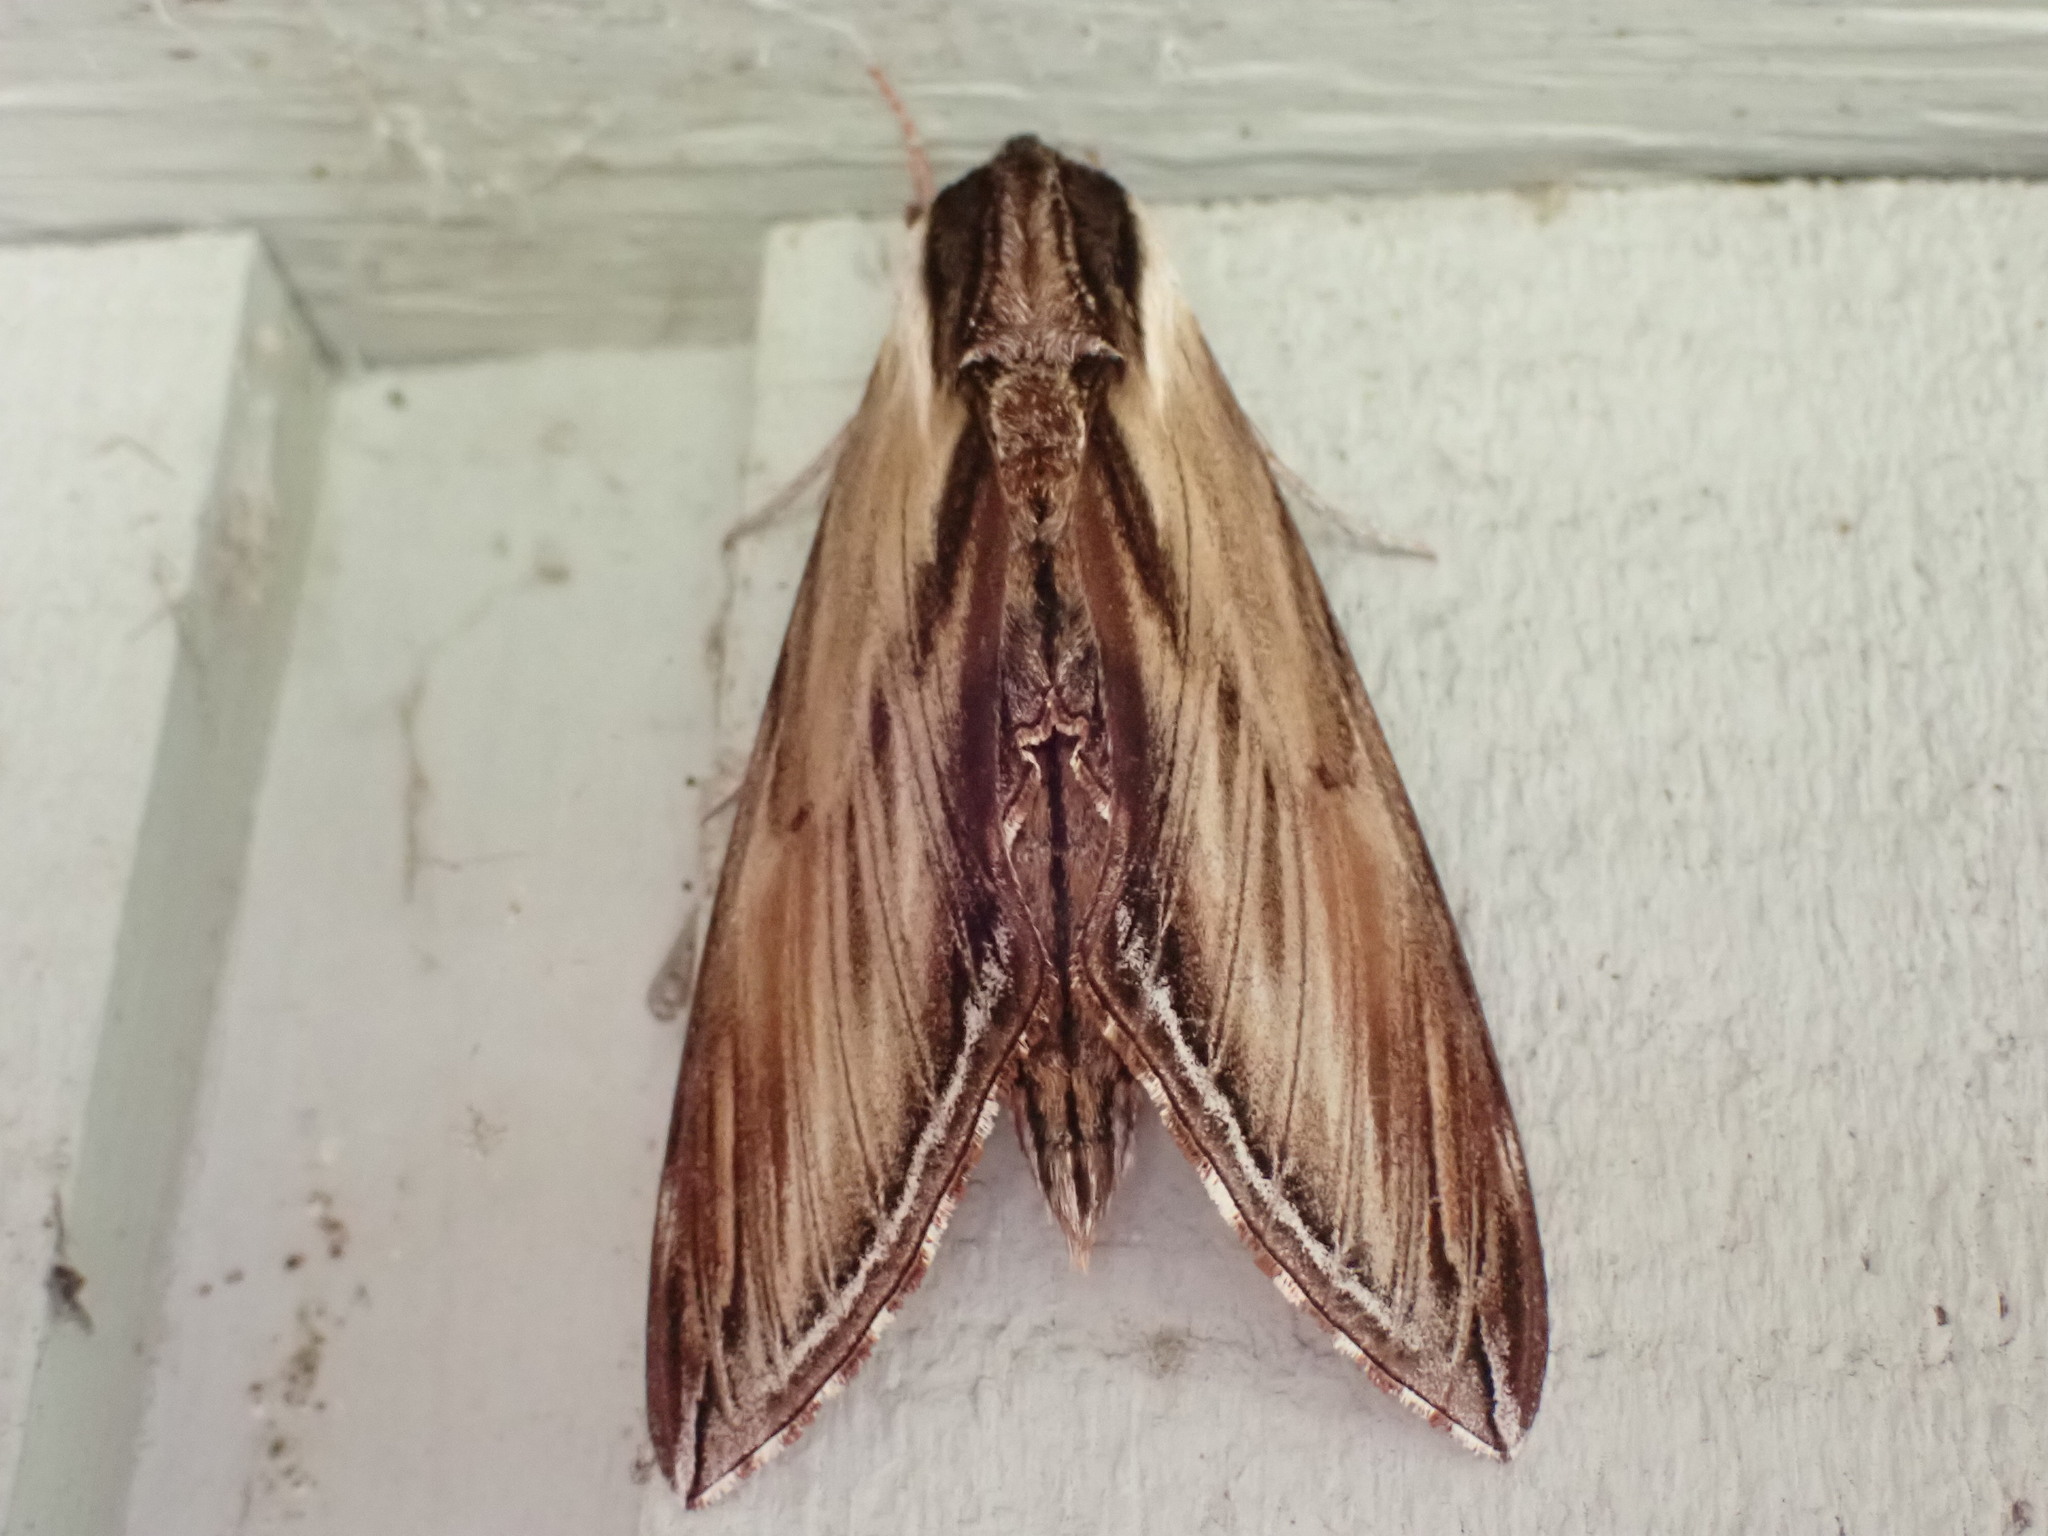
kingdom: Animalia
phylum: Arthropoda
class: Insecta
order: Lepidoptera
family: Sphingidae
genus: Sphinx
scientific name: Sphinx kalmiae
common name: Laurel sphinx
